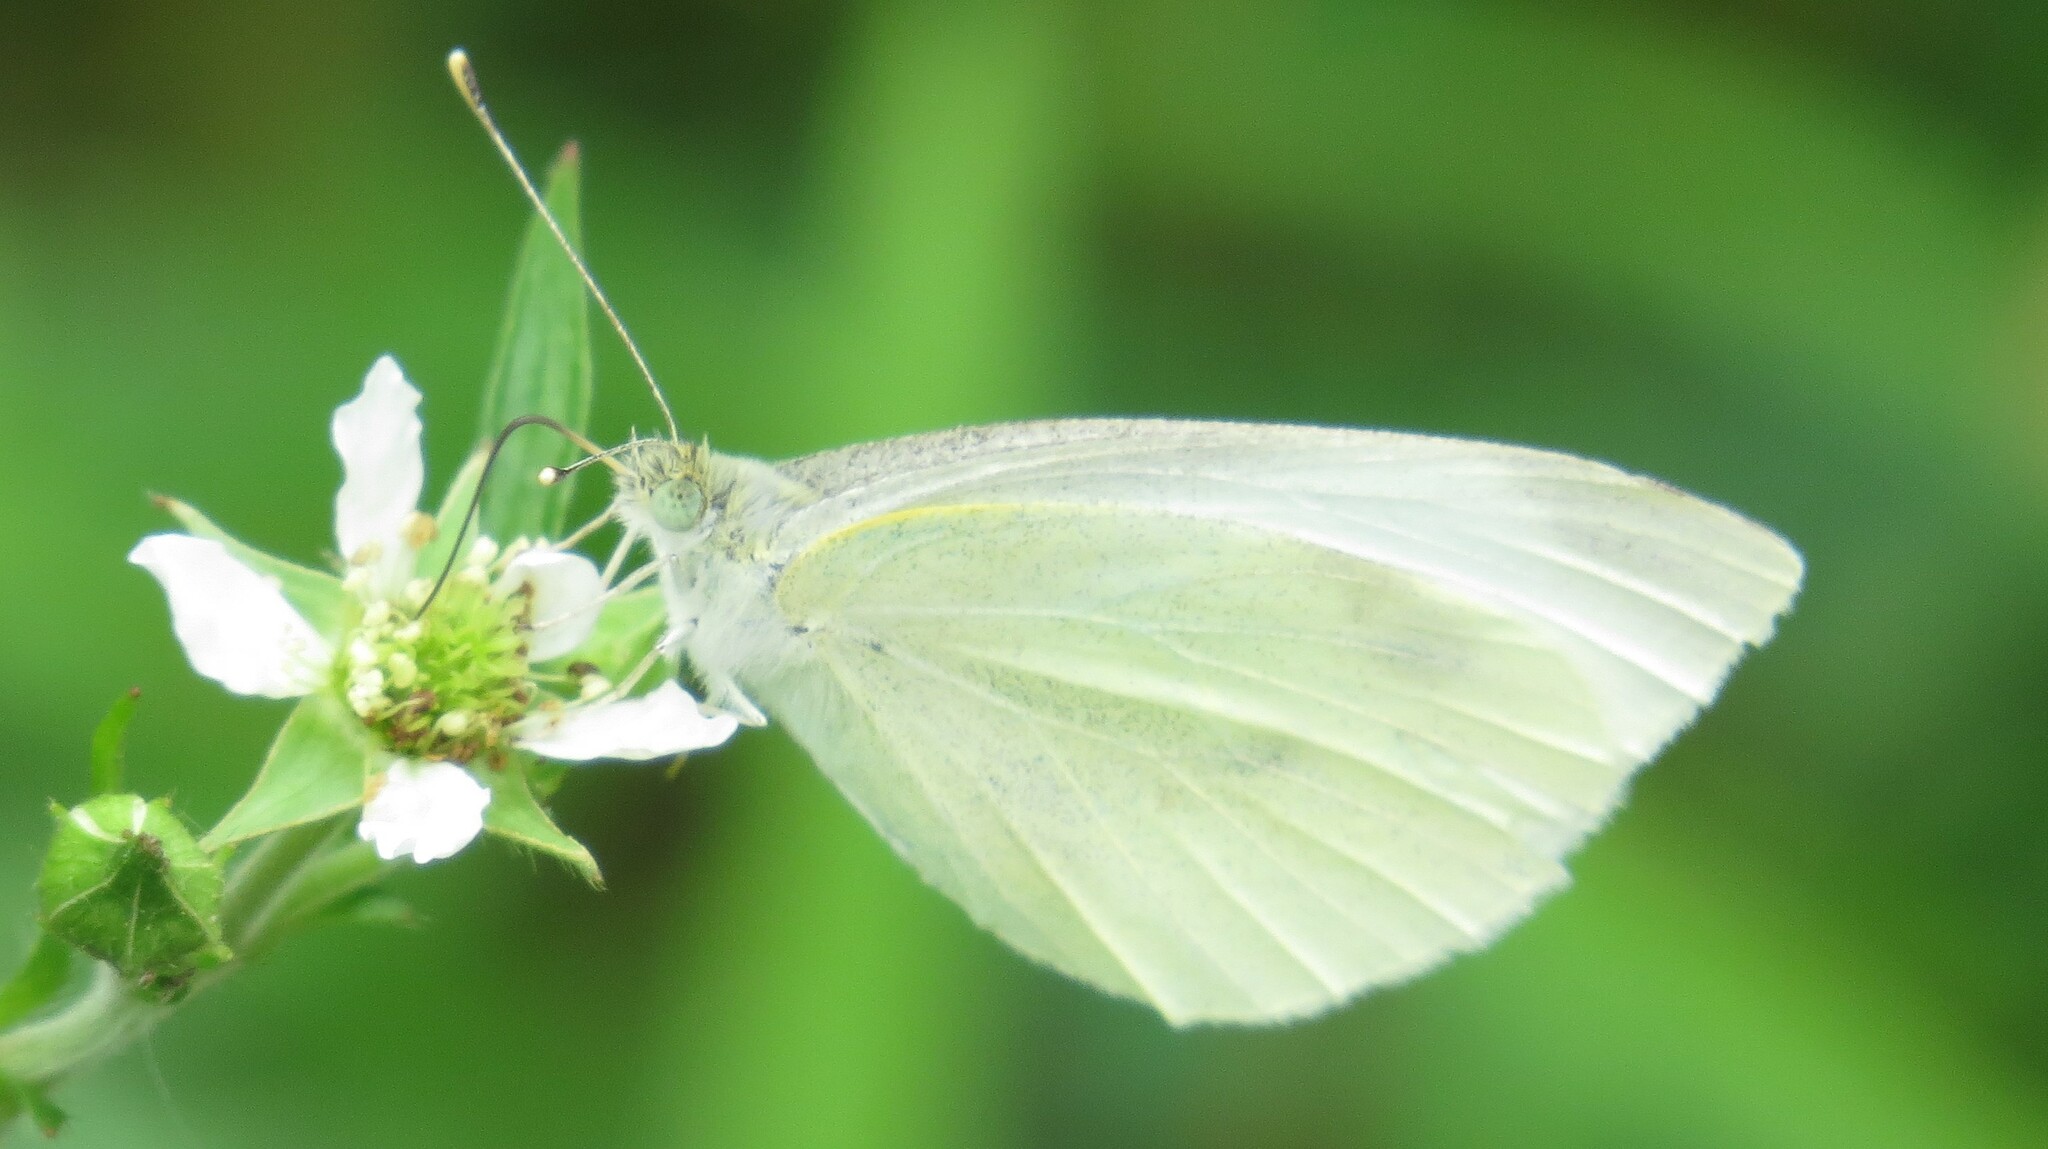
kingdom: Animalia
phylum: Arthropoda
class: Insecta
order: Lepidoptera
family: Pieridae
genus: Pieris
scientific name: Pieris rapae
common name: Small white
